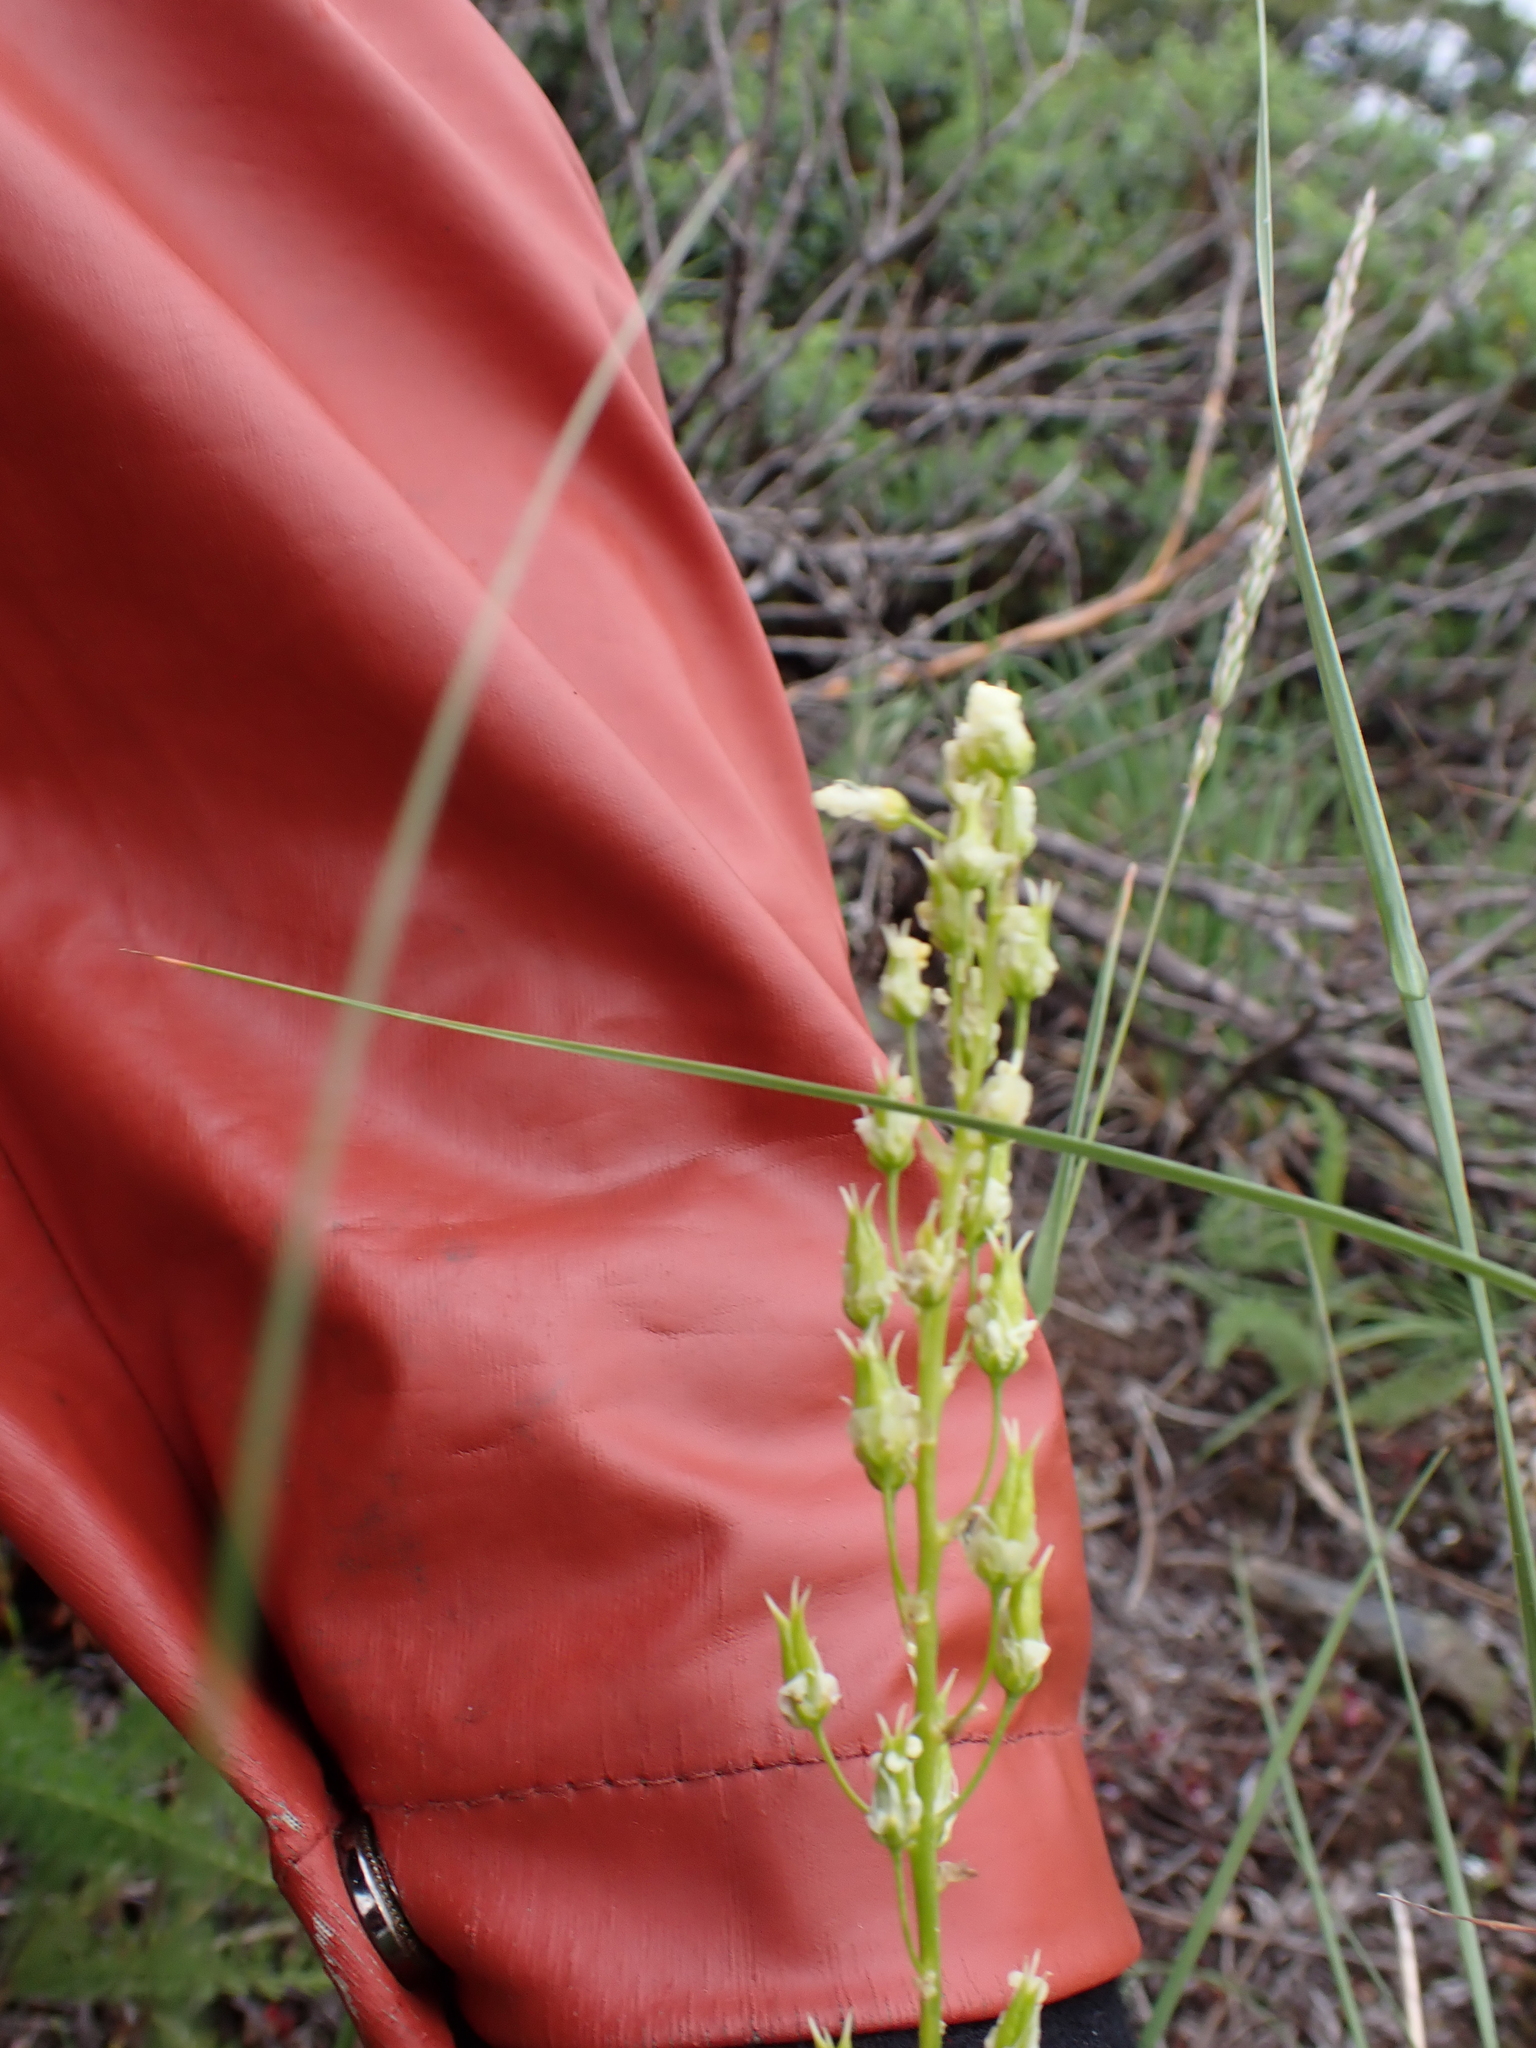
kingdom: Plantae
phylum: Tracheophyta
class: Liliopsida
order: Liliales
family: Melanthiaceae
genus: Toxicoscordion
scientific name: Toxicoscordion venenosum
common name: Meadow death camas
